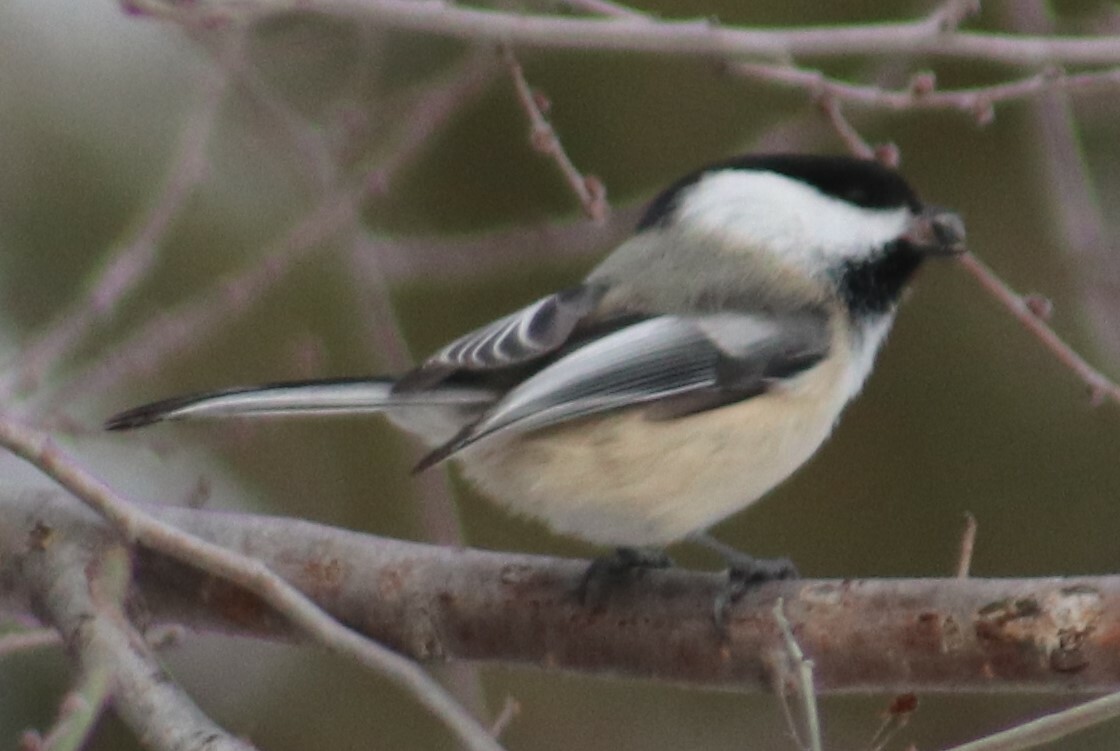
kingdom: Animalia
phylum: Chordata
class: Aves
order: Passeriformes
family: Paridae
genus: Poecile
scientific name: Poecile atricapillus
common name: Black-capped chickadee
